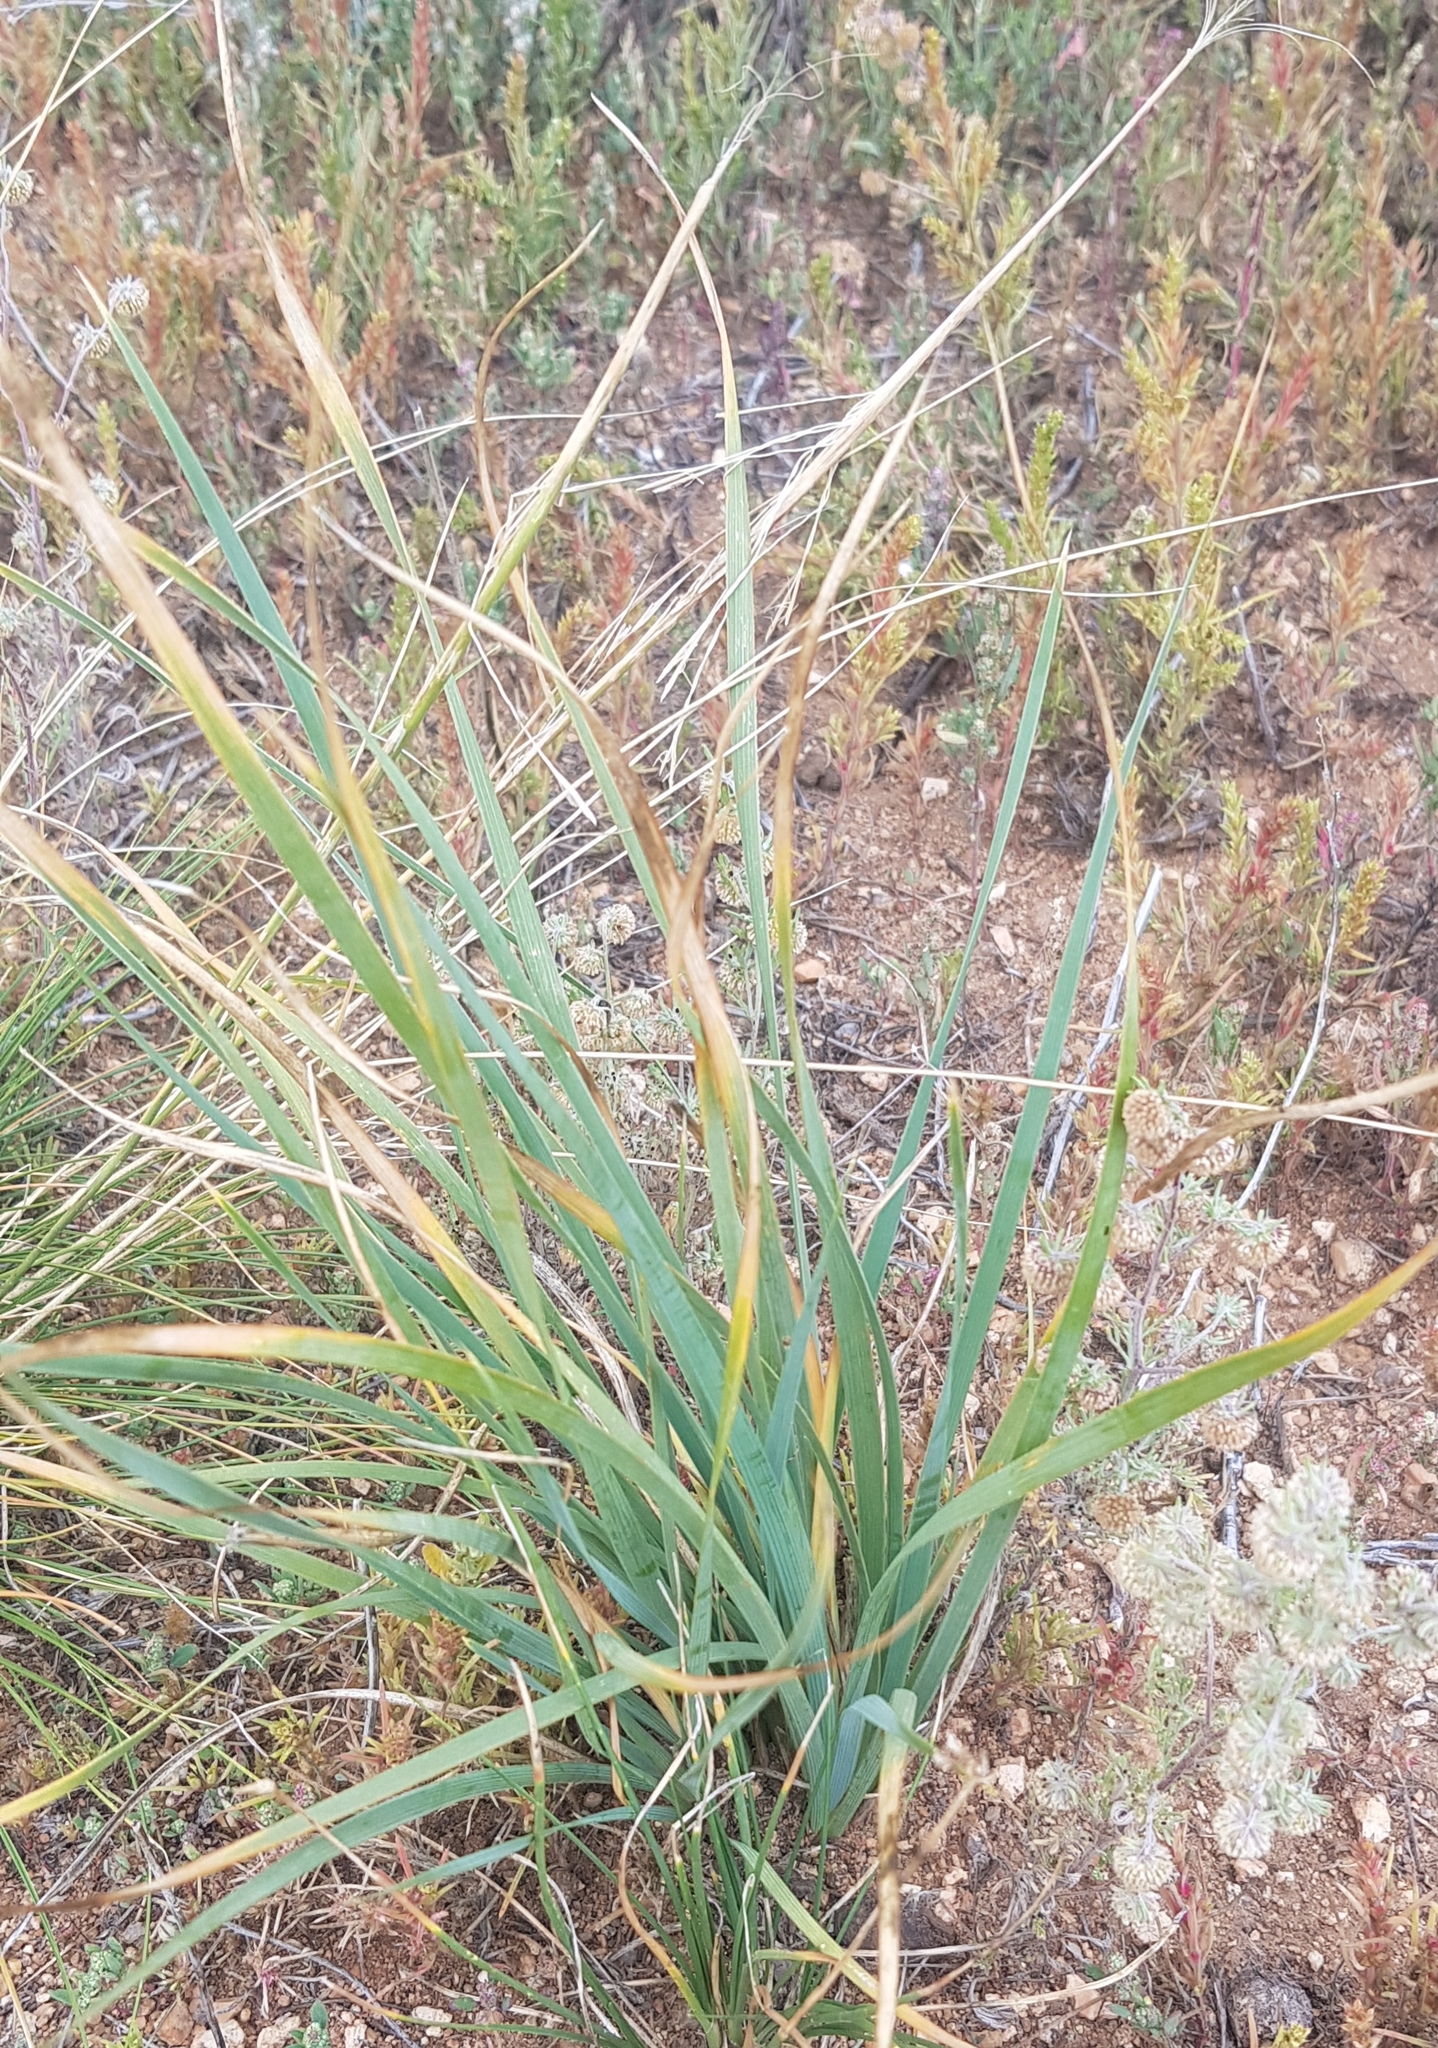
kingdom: Plantae
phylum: Tracheophyta
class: Liliopsida
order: Asparagales
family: Iridaceae
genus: Iris
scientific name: Iris bungei
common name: Large-bract iris
